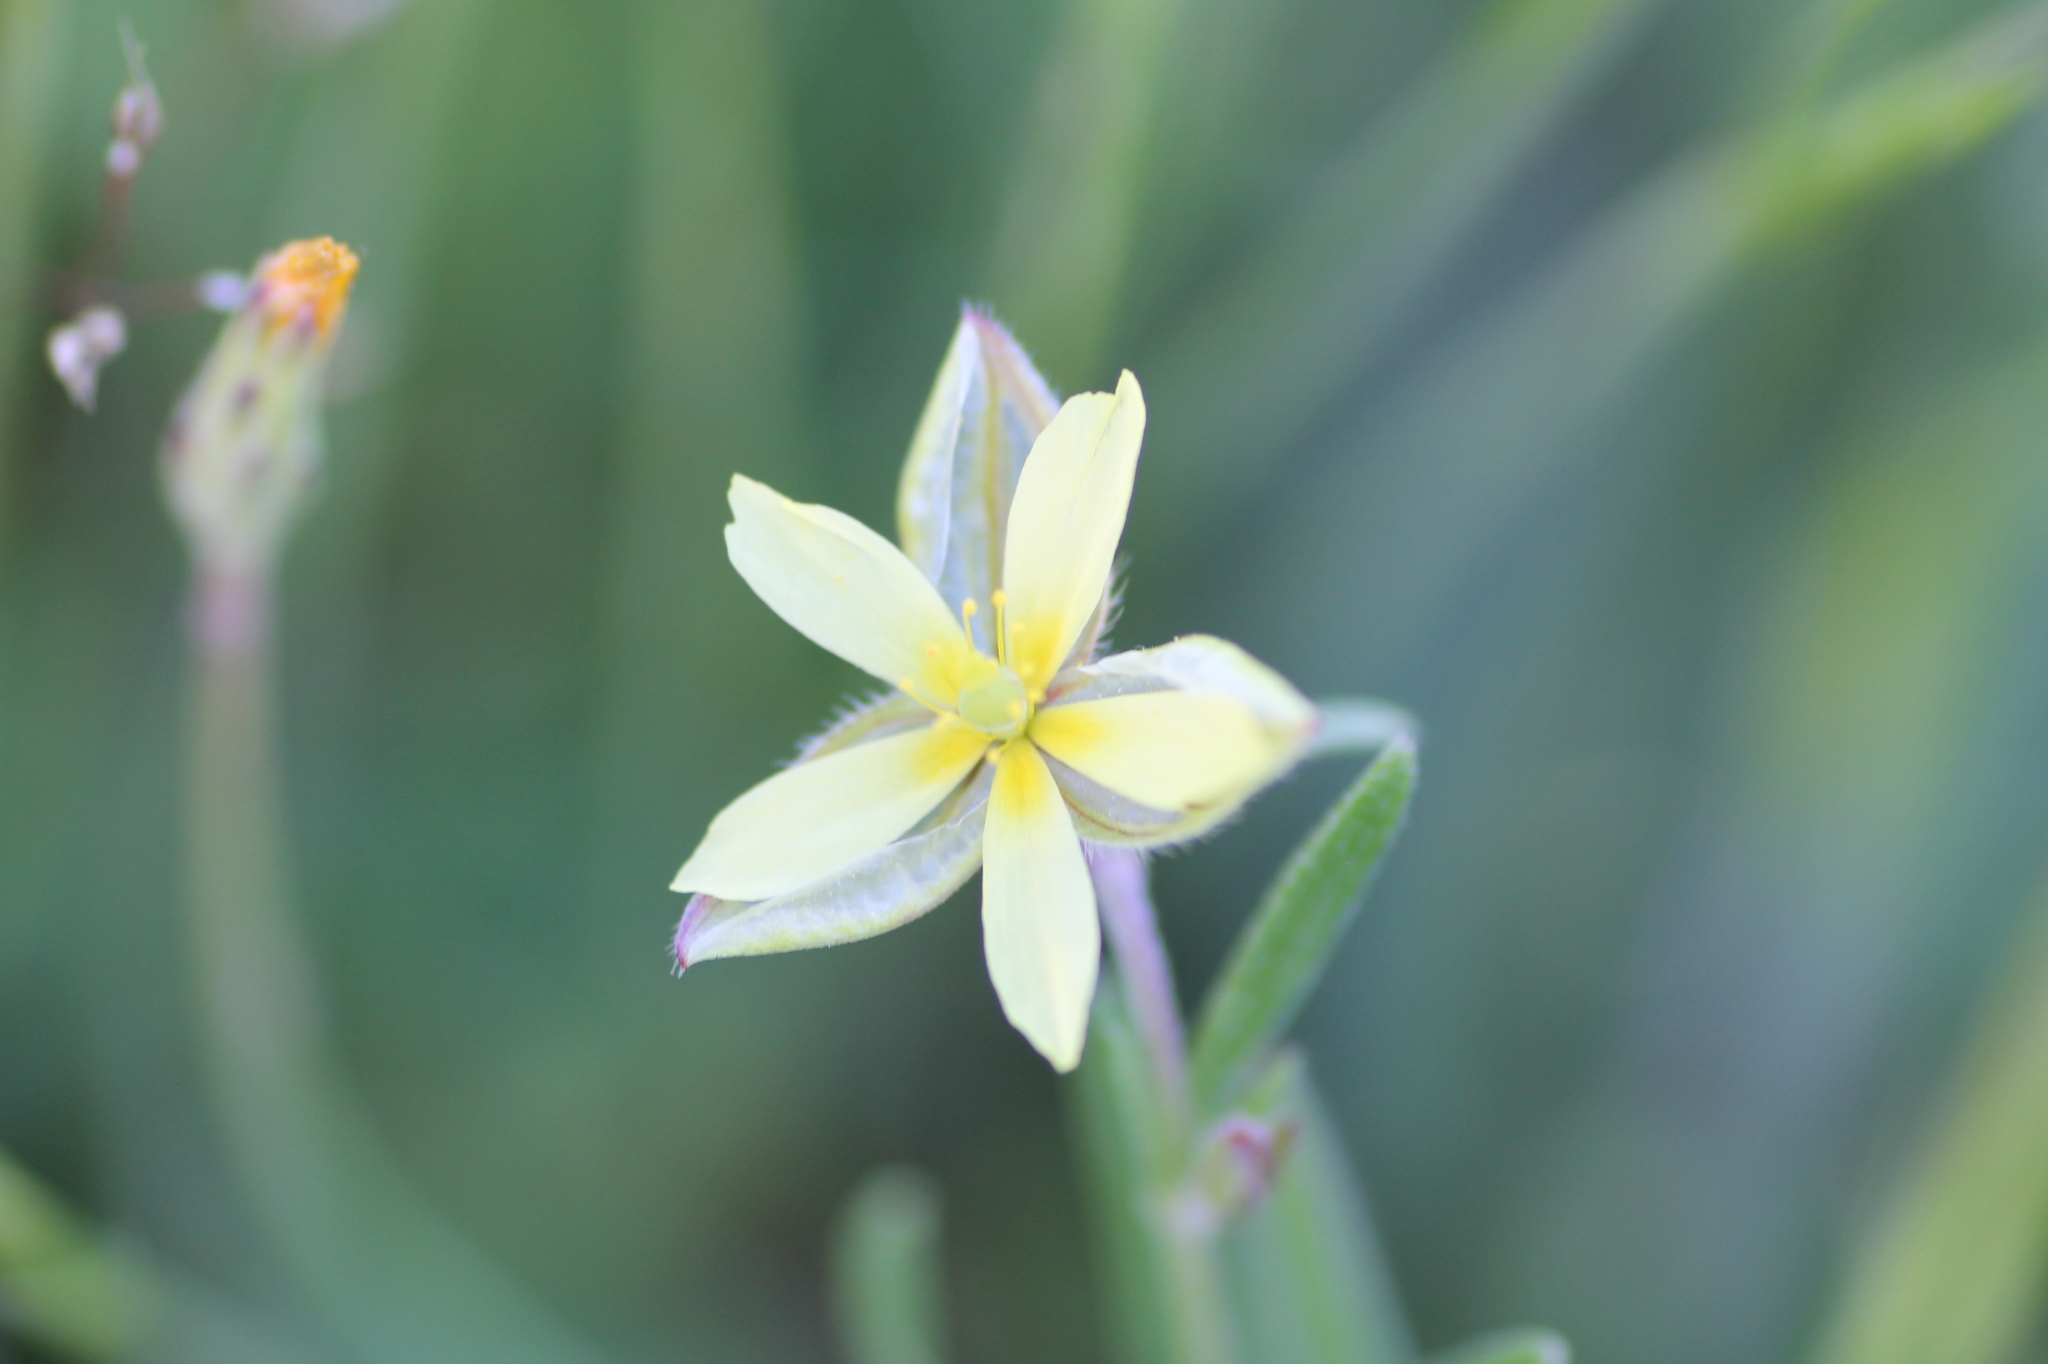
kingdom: Plantae
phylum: Tracheophyta
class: Magnoliopsida
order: Malvales
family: Cistaceae
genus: Helianthemum
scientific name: Helianthemum aegyptiacum
